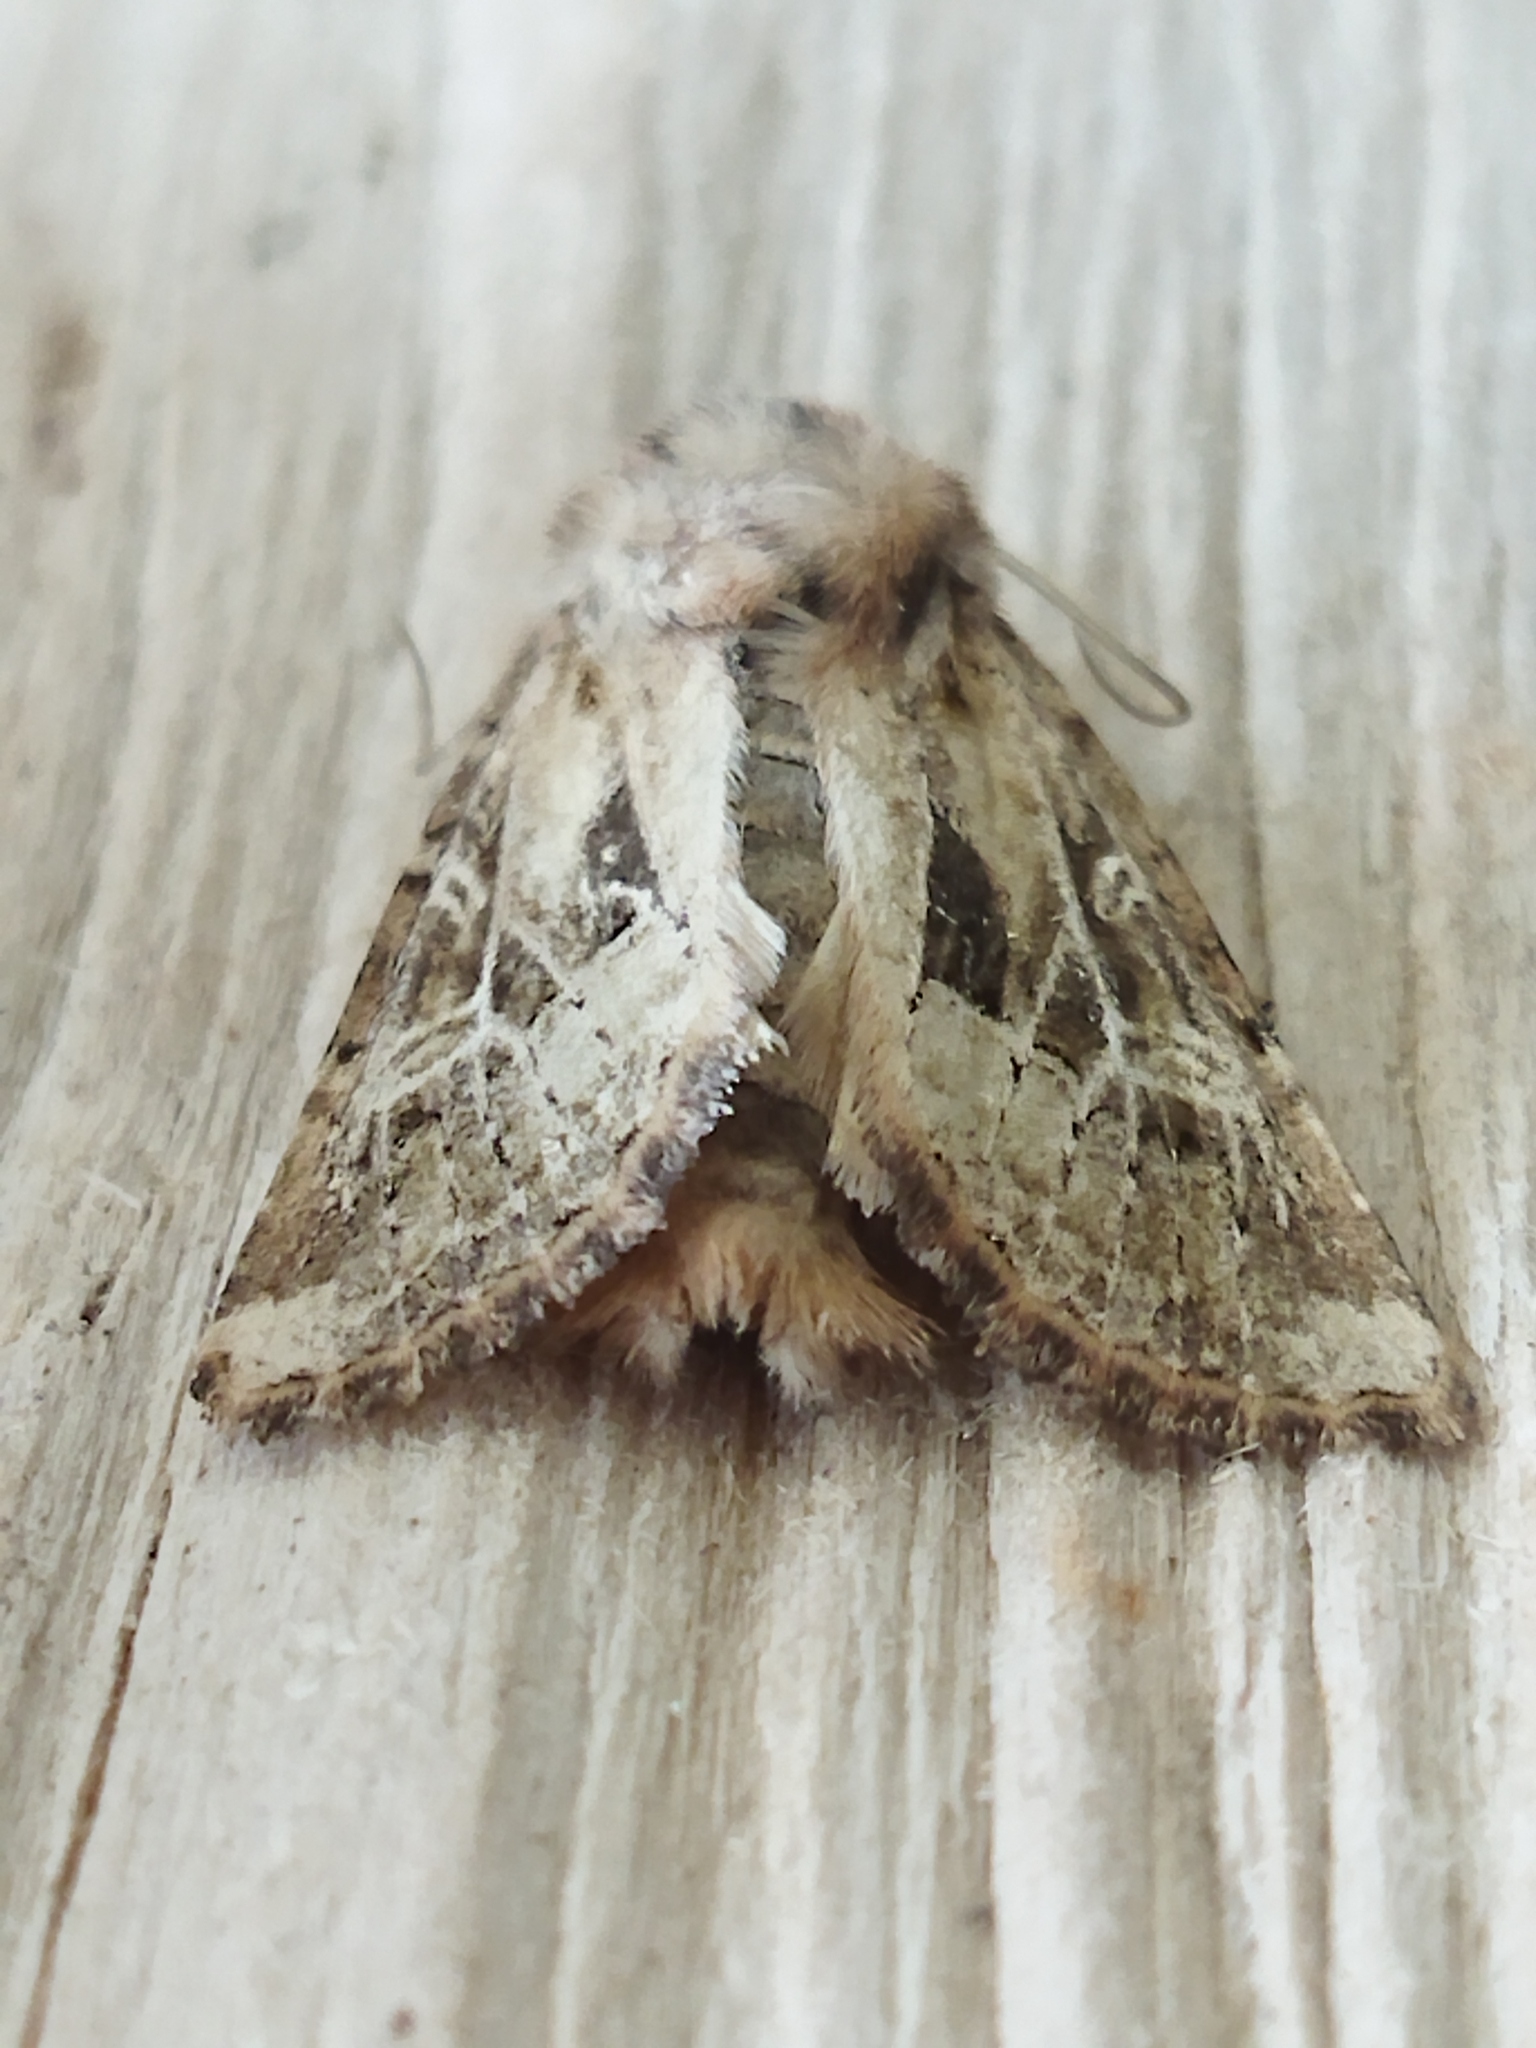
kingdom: Animalia
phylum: Arthropoda
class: Insecta
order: Lepidoptera
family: Noctuidae
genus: Luperina
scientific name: Luperina dumerilii
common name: Dumeril's rustic
